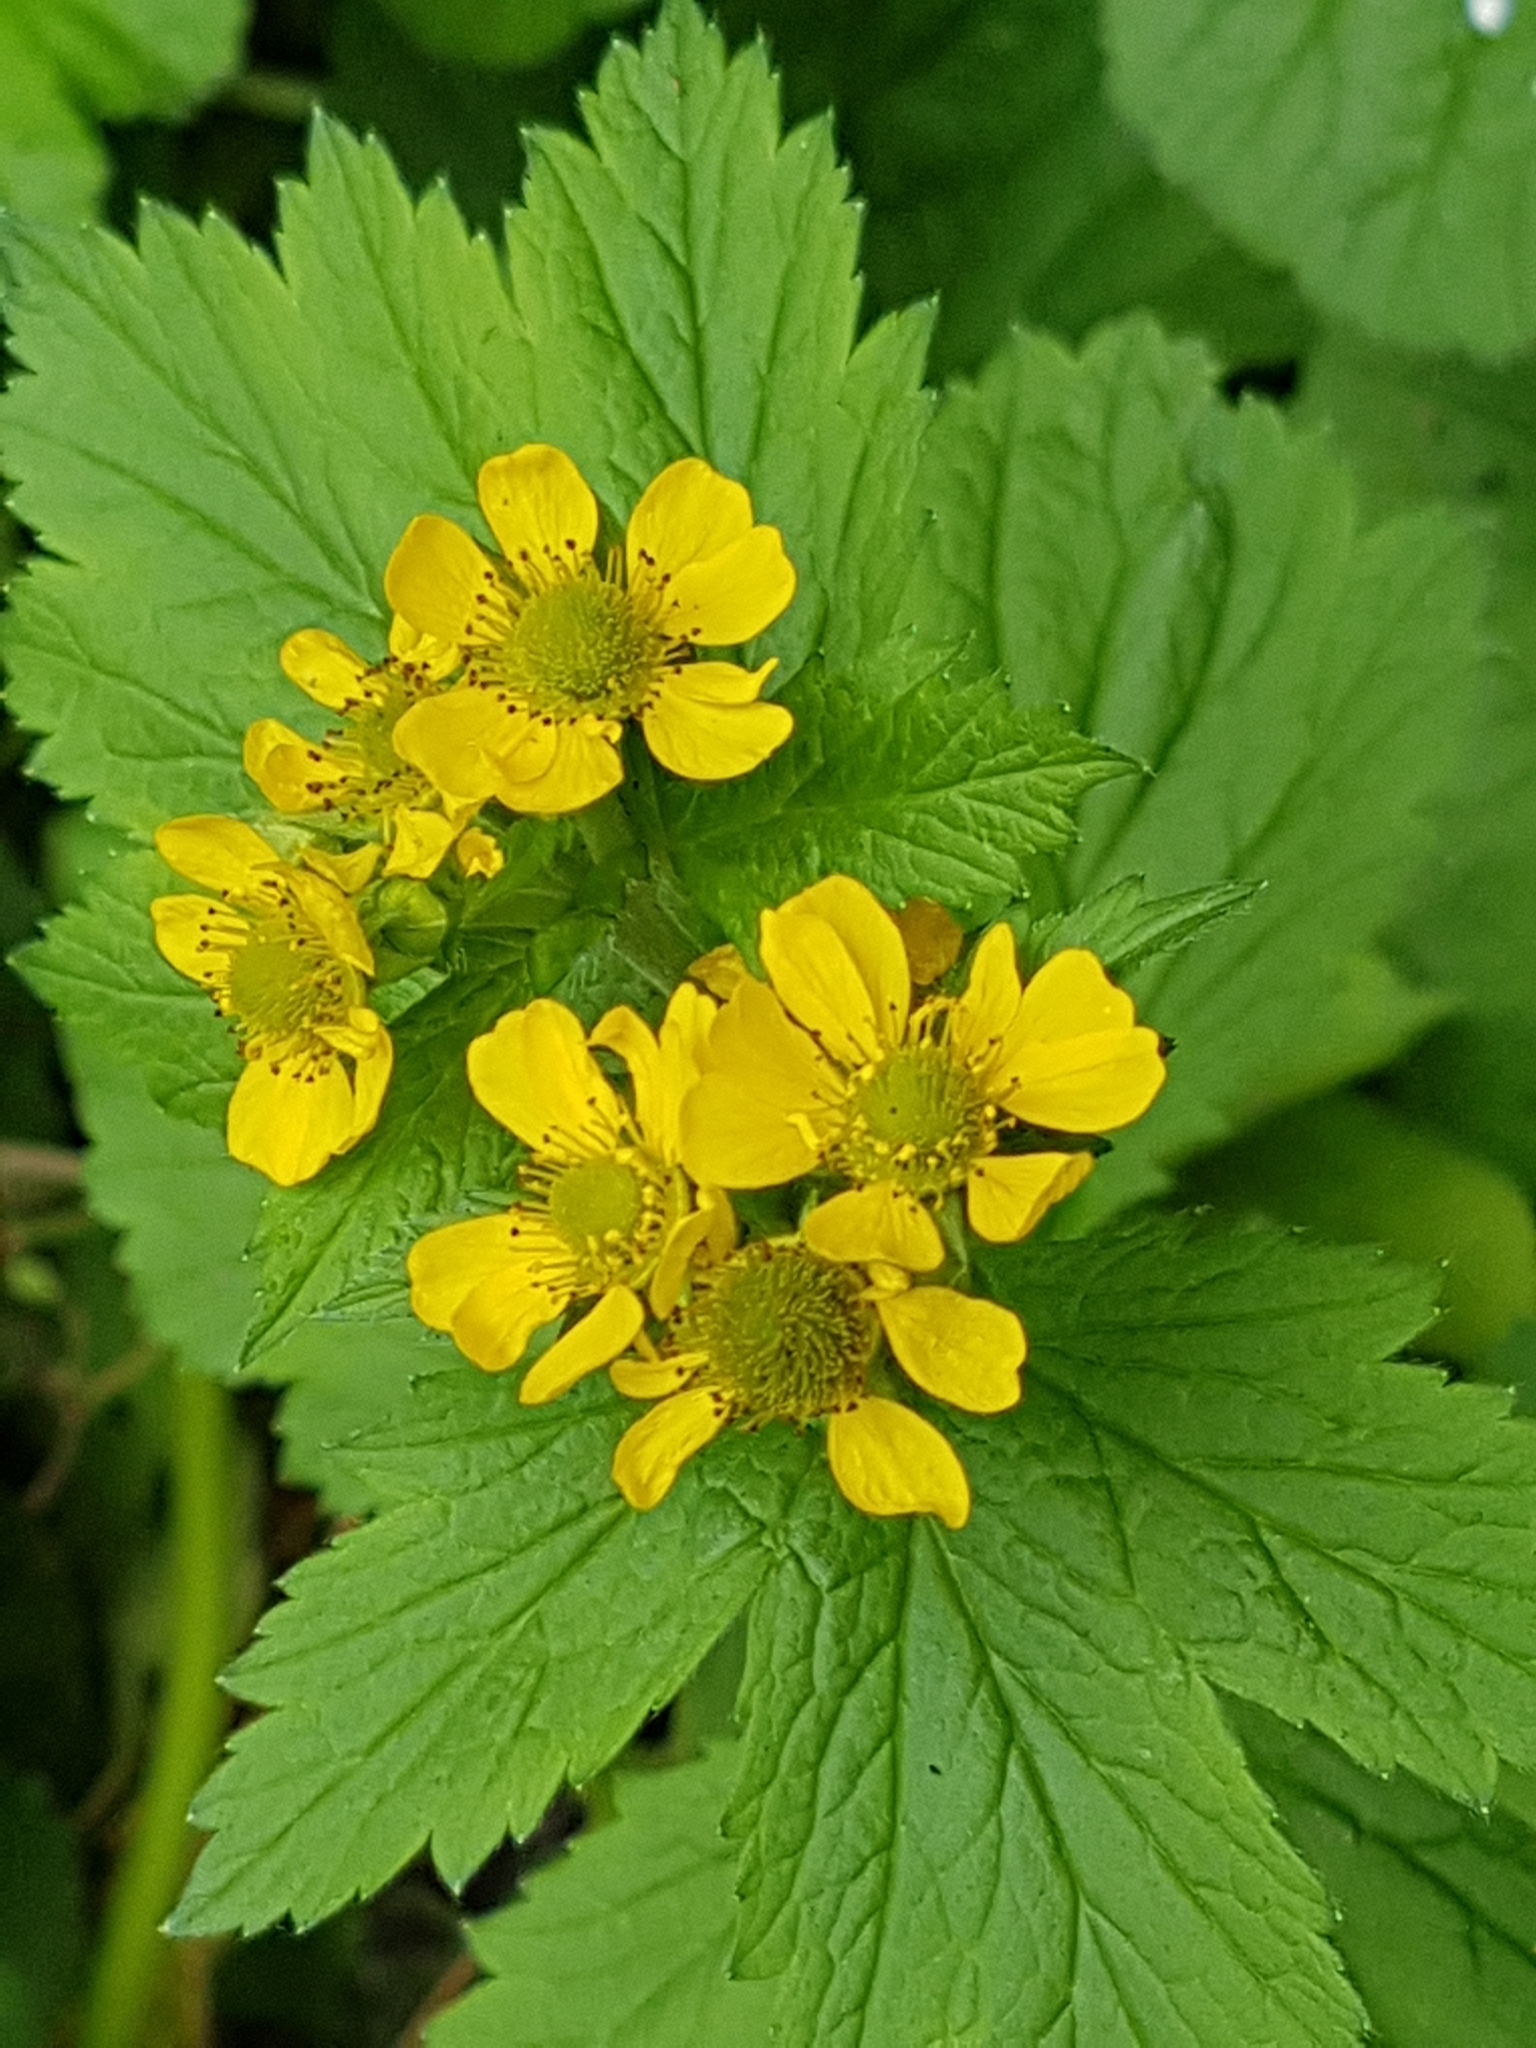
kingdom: Plantae
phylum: Tracheophyta
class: Magnoliopsida
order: Rosales
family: Rosaceae
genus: Geum
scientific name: Geum macrophyllum
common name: Large-leaved avens
